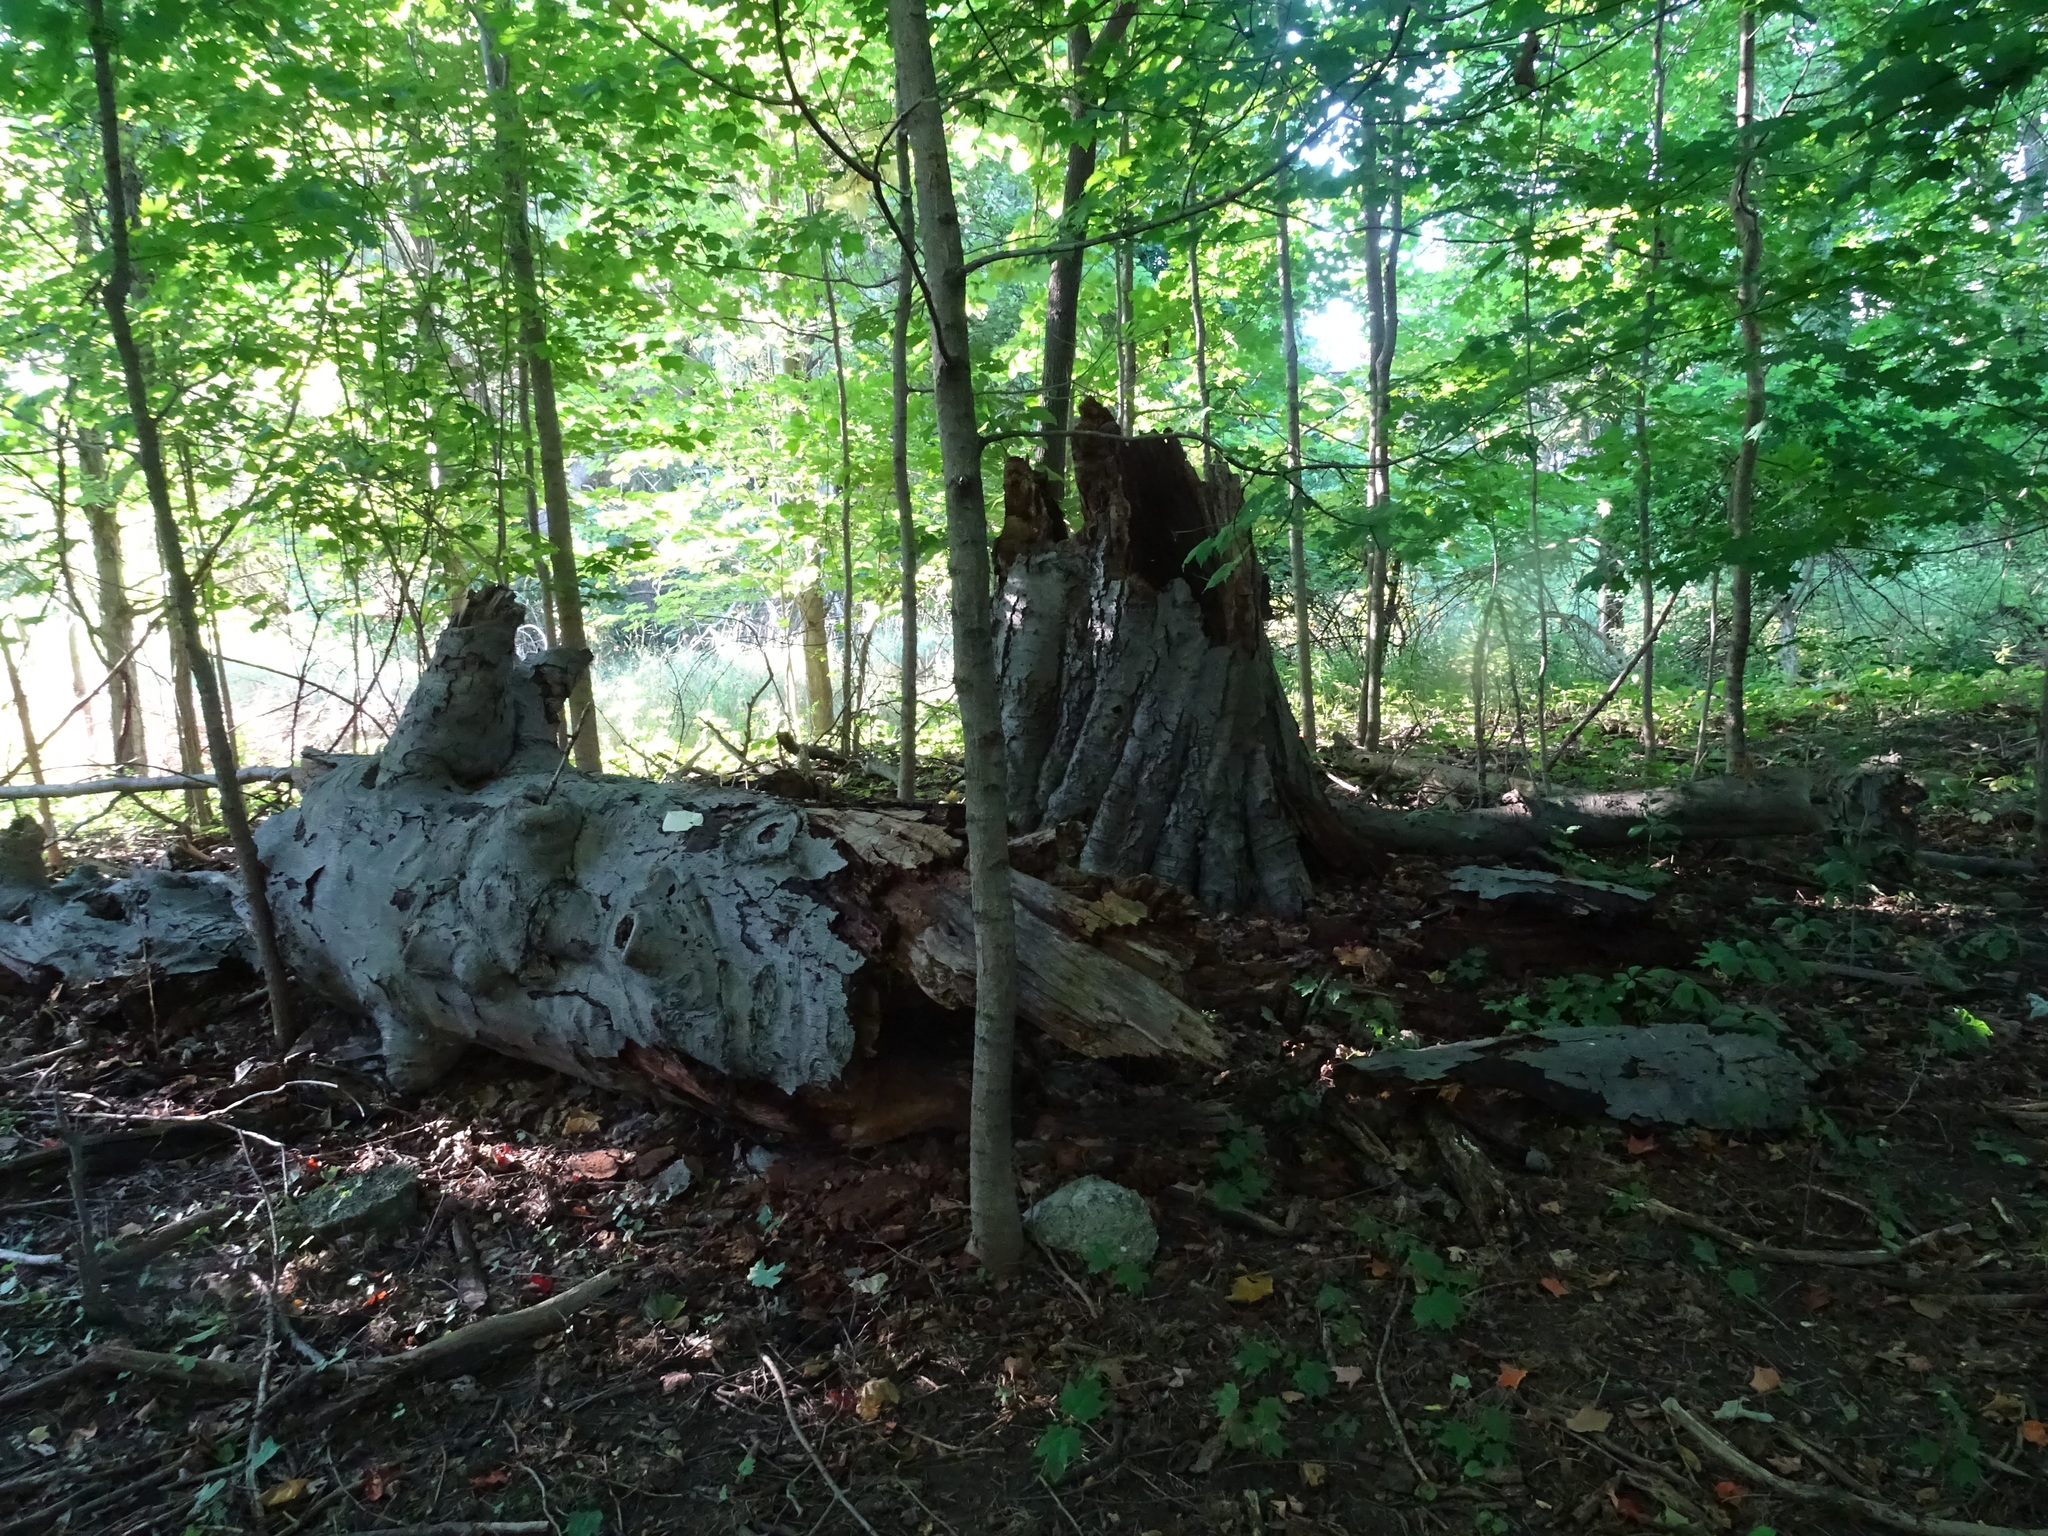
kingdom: Plantae
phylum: Tracheophyta
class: Magnoliopsida
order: Fagales
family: Fagaceae
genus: Fagus
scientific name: Fagus grandifolia
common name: American beech
